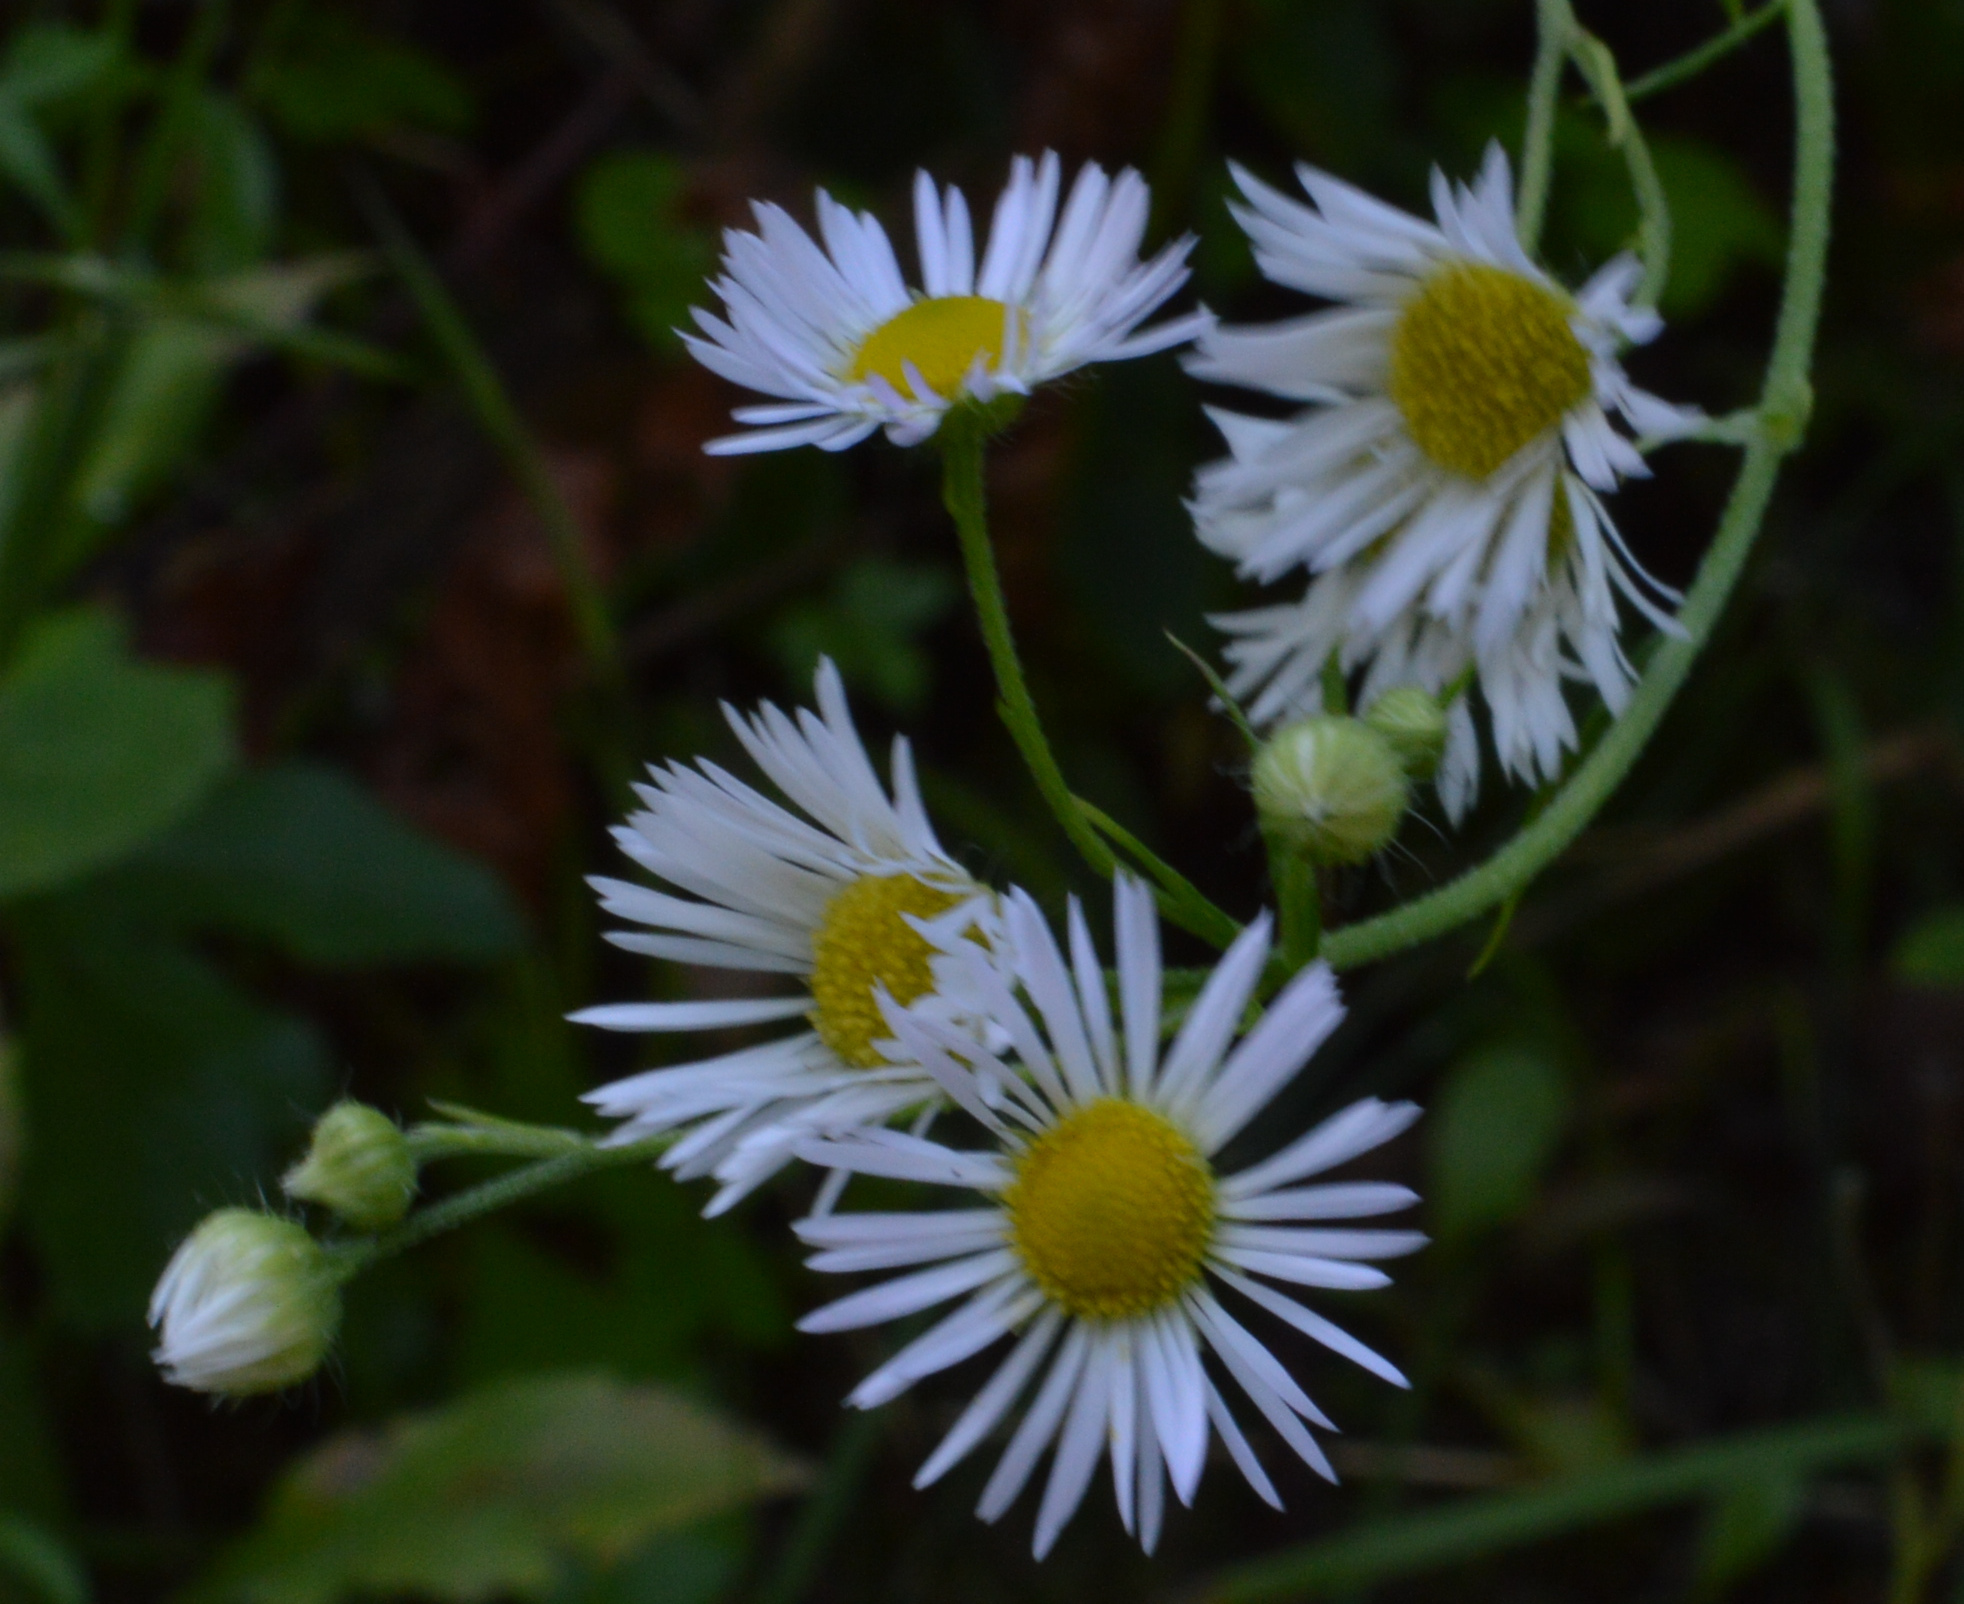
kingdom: Plantae
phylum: Tracheophyta
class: Magnoliopsida
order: Asterales
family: Asteraceae
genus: Erigeron
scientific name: Erigeron annuus
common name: Tall fleabane
